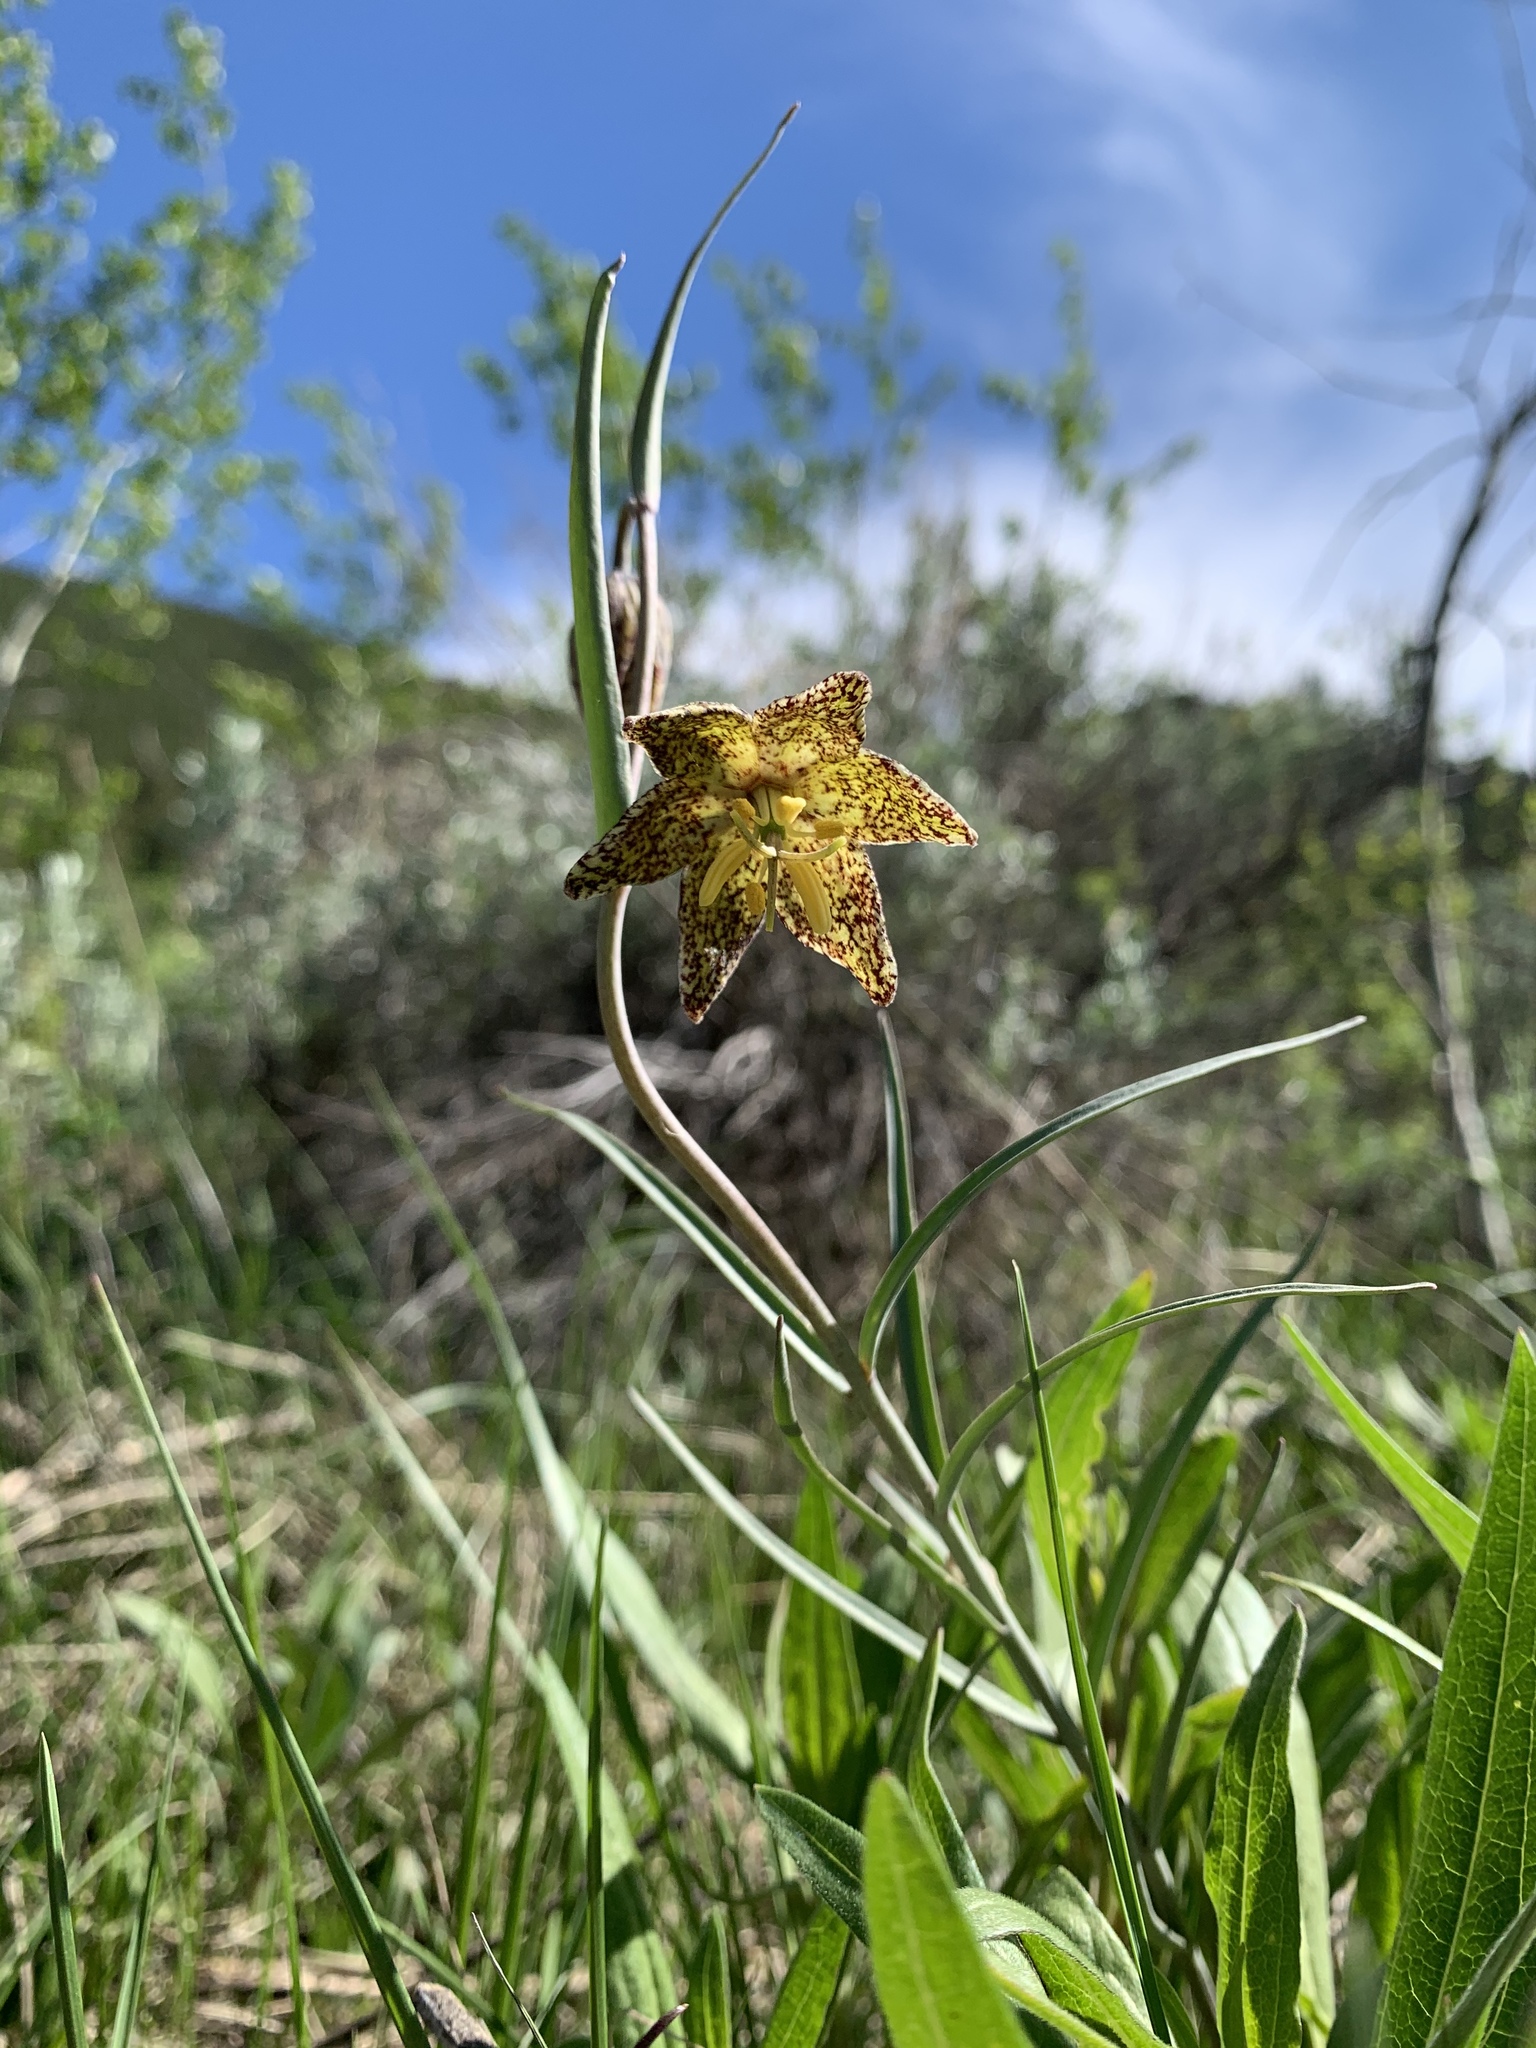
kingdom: Plantae
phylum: Tracheophyta
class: Liliopsida
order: Liliales
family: Liliaceae
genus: Fritillaria
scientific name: Fritillaria atropurpurea
